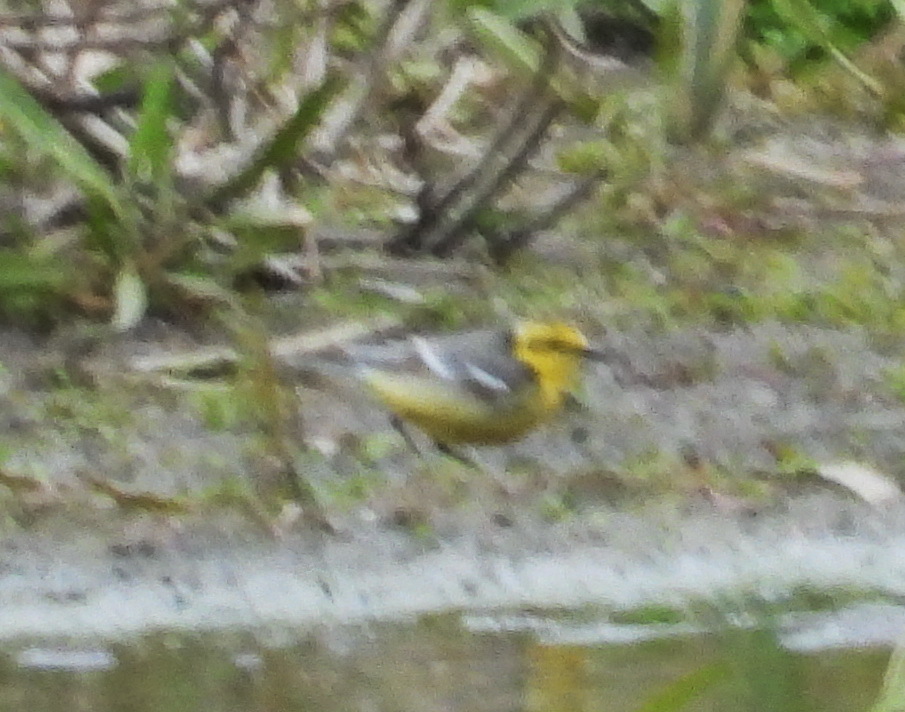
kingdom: Animalia
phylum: Chordata
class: Aves
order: Passeriformes
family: Motacillidae
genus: Motacilla
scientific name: Motacilla citreola
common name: Citrine wagtail
